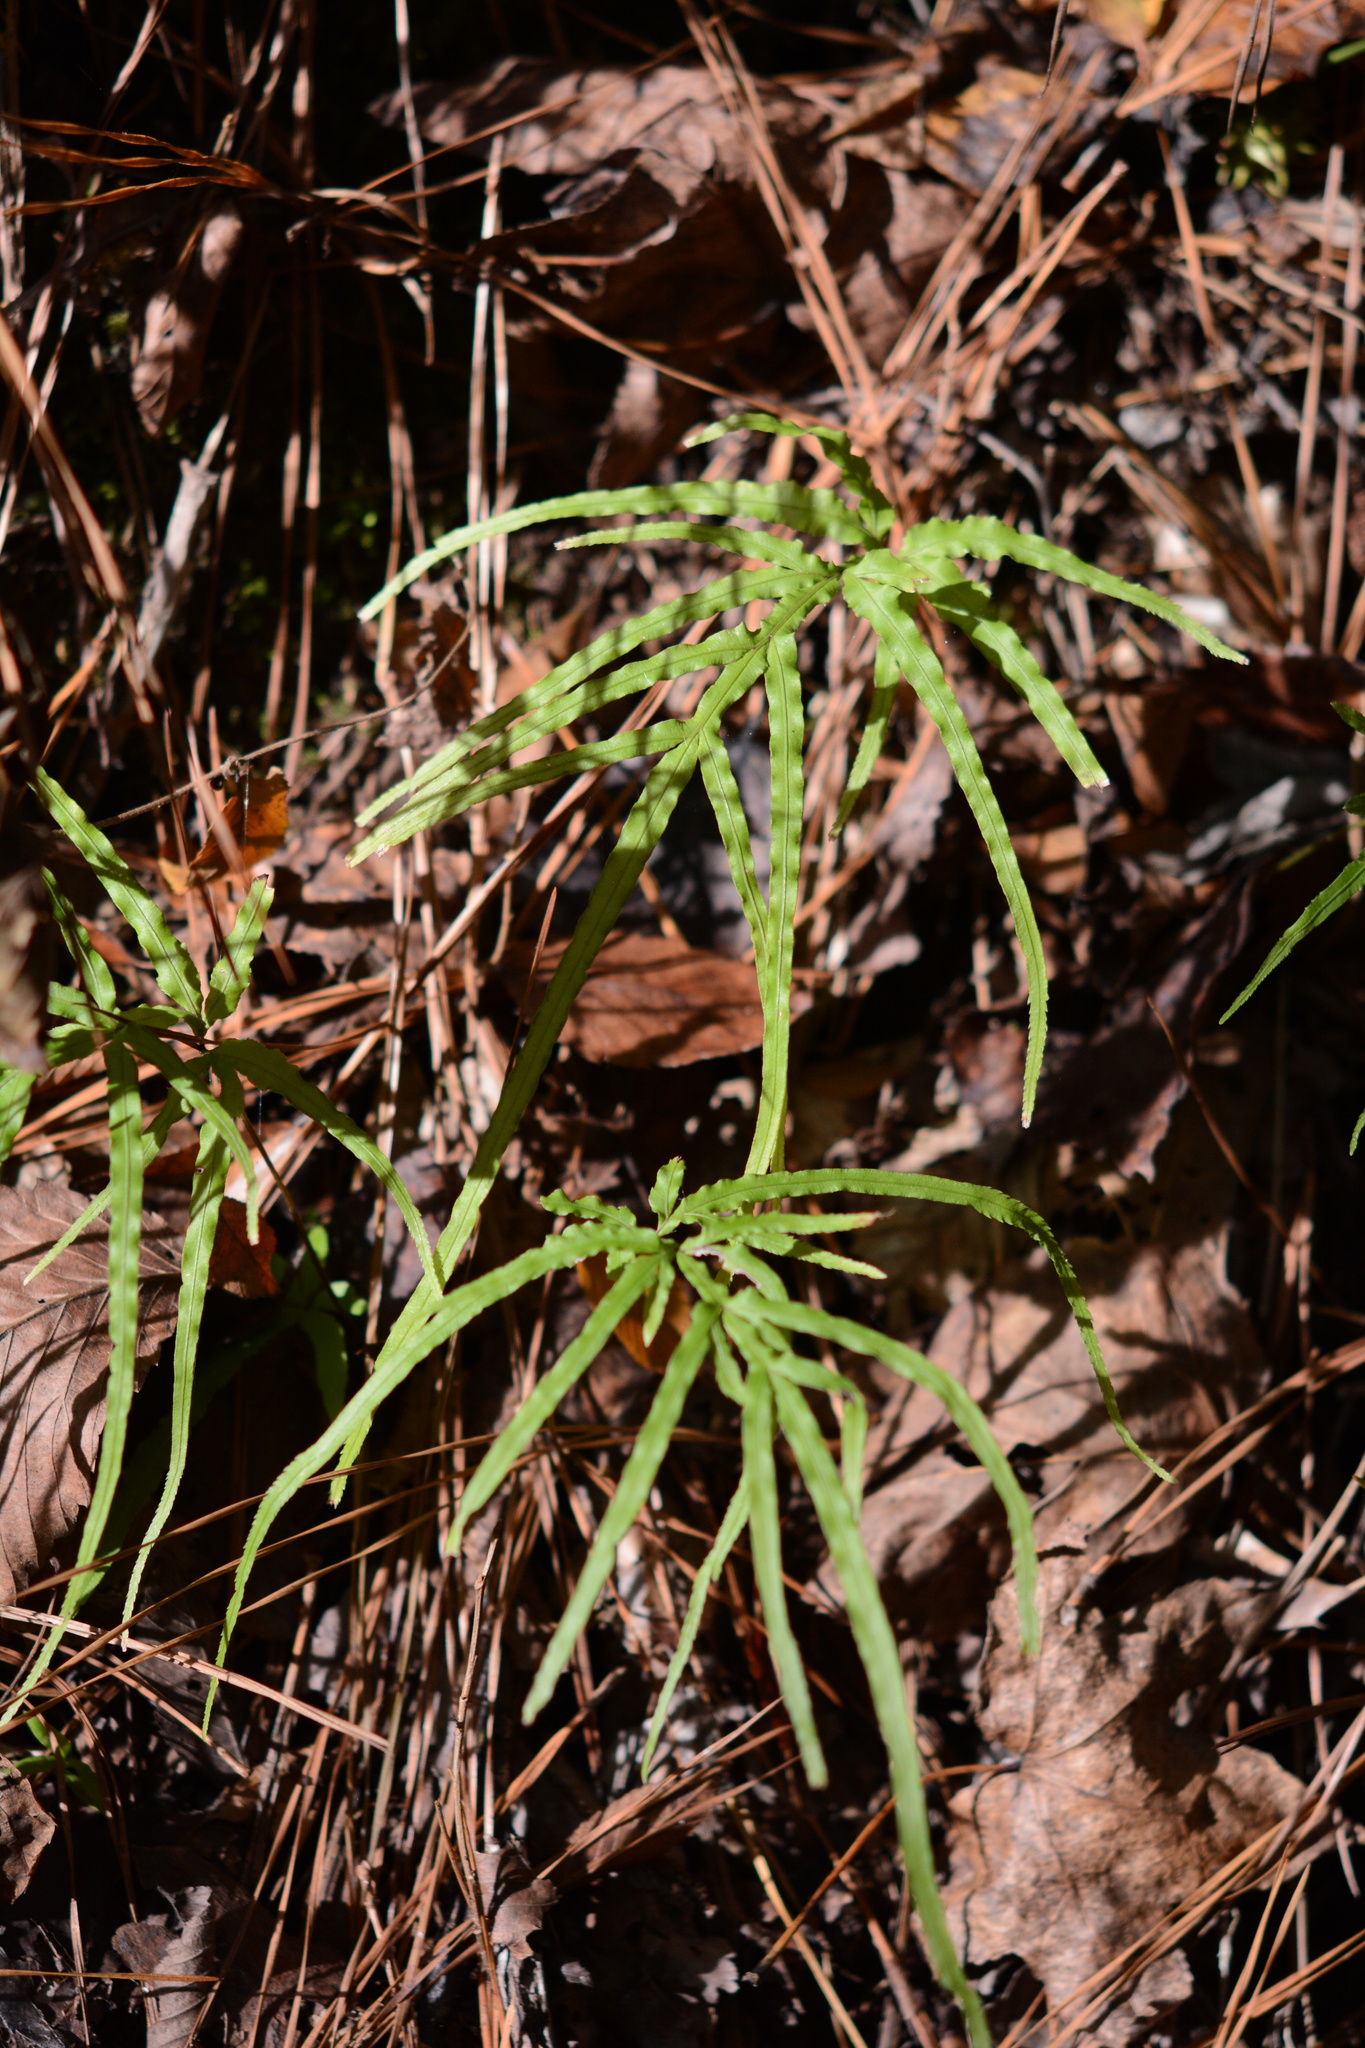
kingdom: Plantae
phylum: Tracheophyta
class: Polypodiopsida
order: Polypodiales
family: Pteridaceae
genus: Pteris
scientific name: Pteris multifida
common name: Spider brake
